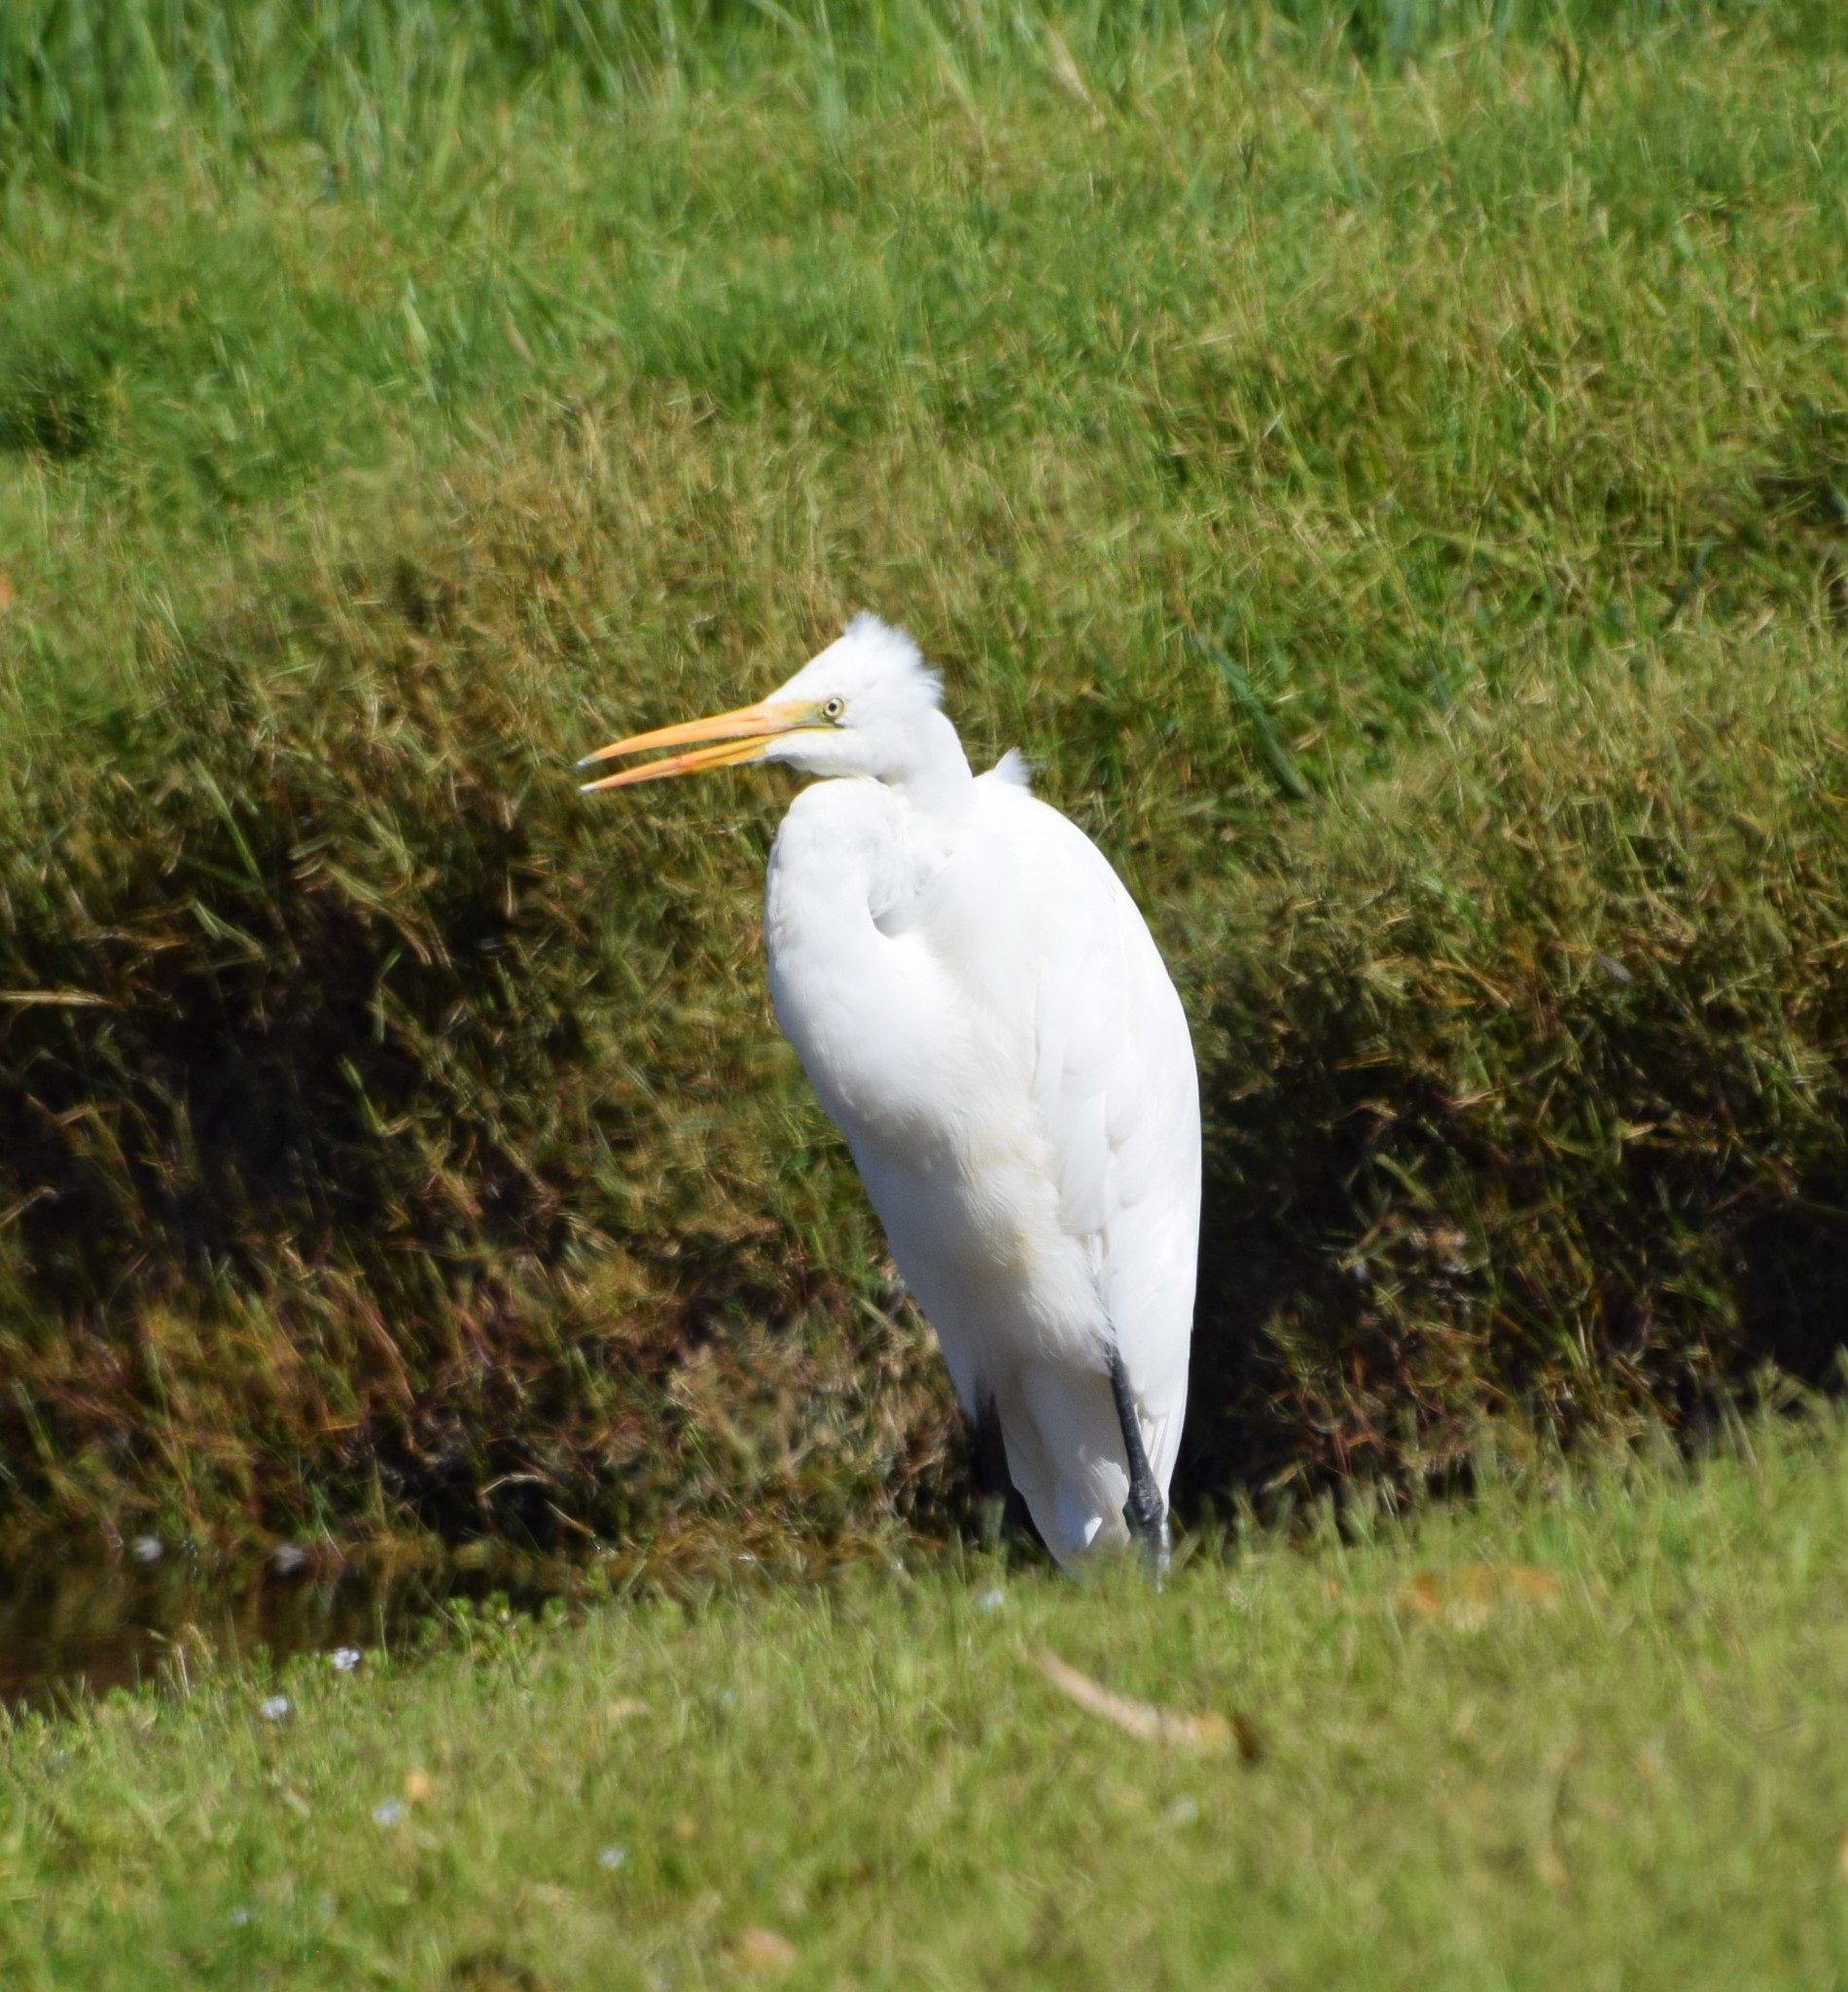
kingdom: Animalia
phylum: Chordata
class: Aves
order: Pelecaniformes
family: Ardeidae
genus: Ardea
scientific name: Ardea alba
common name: Great egret
